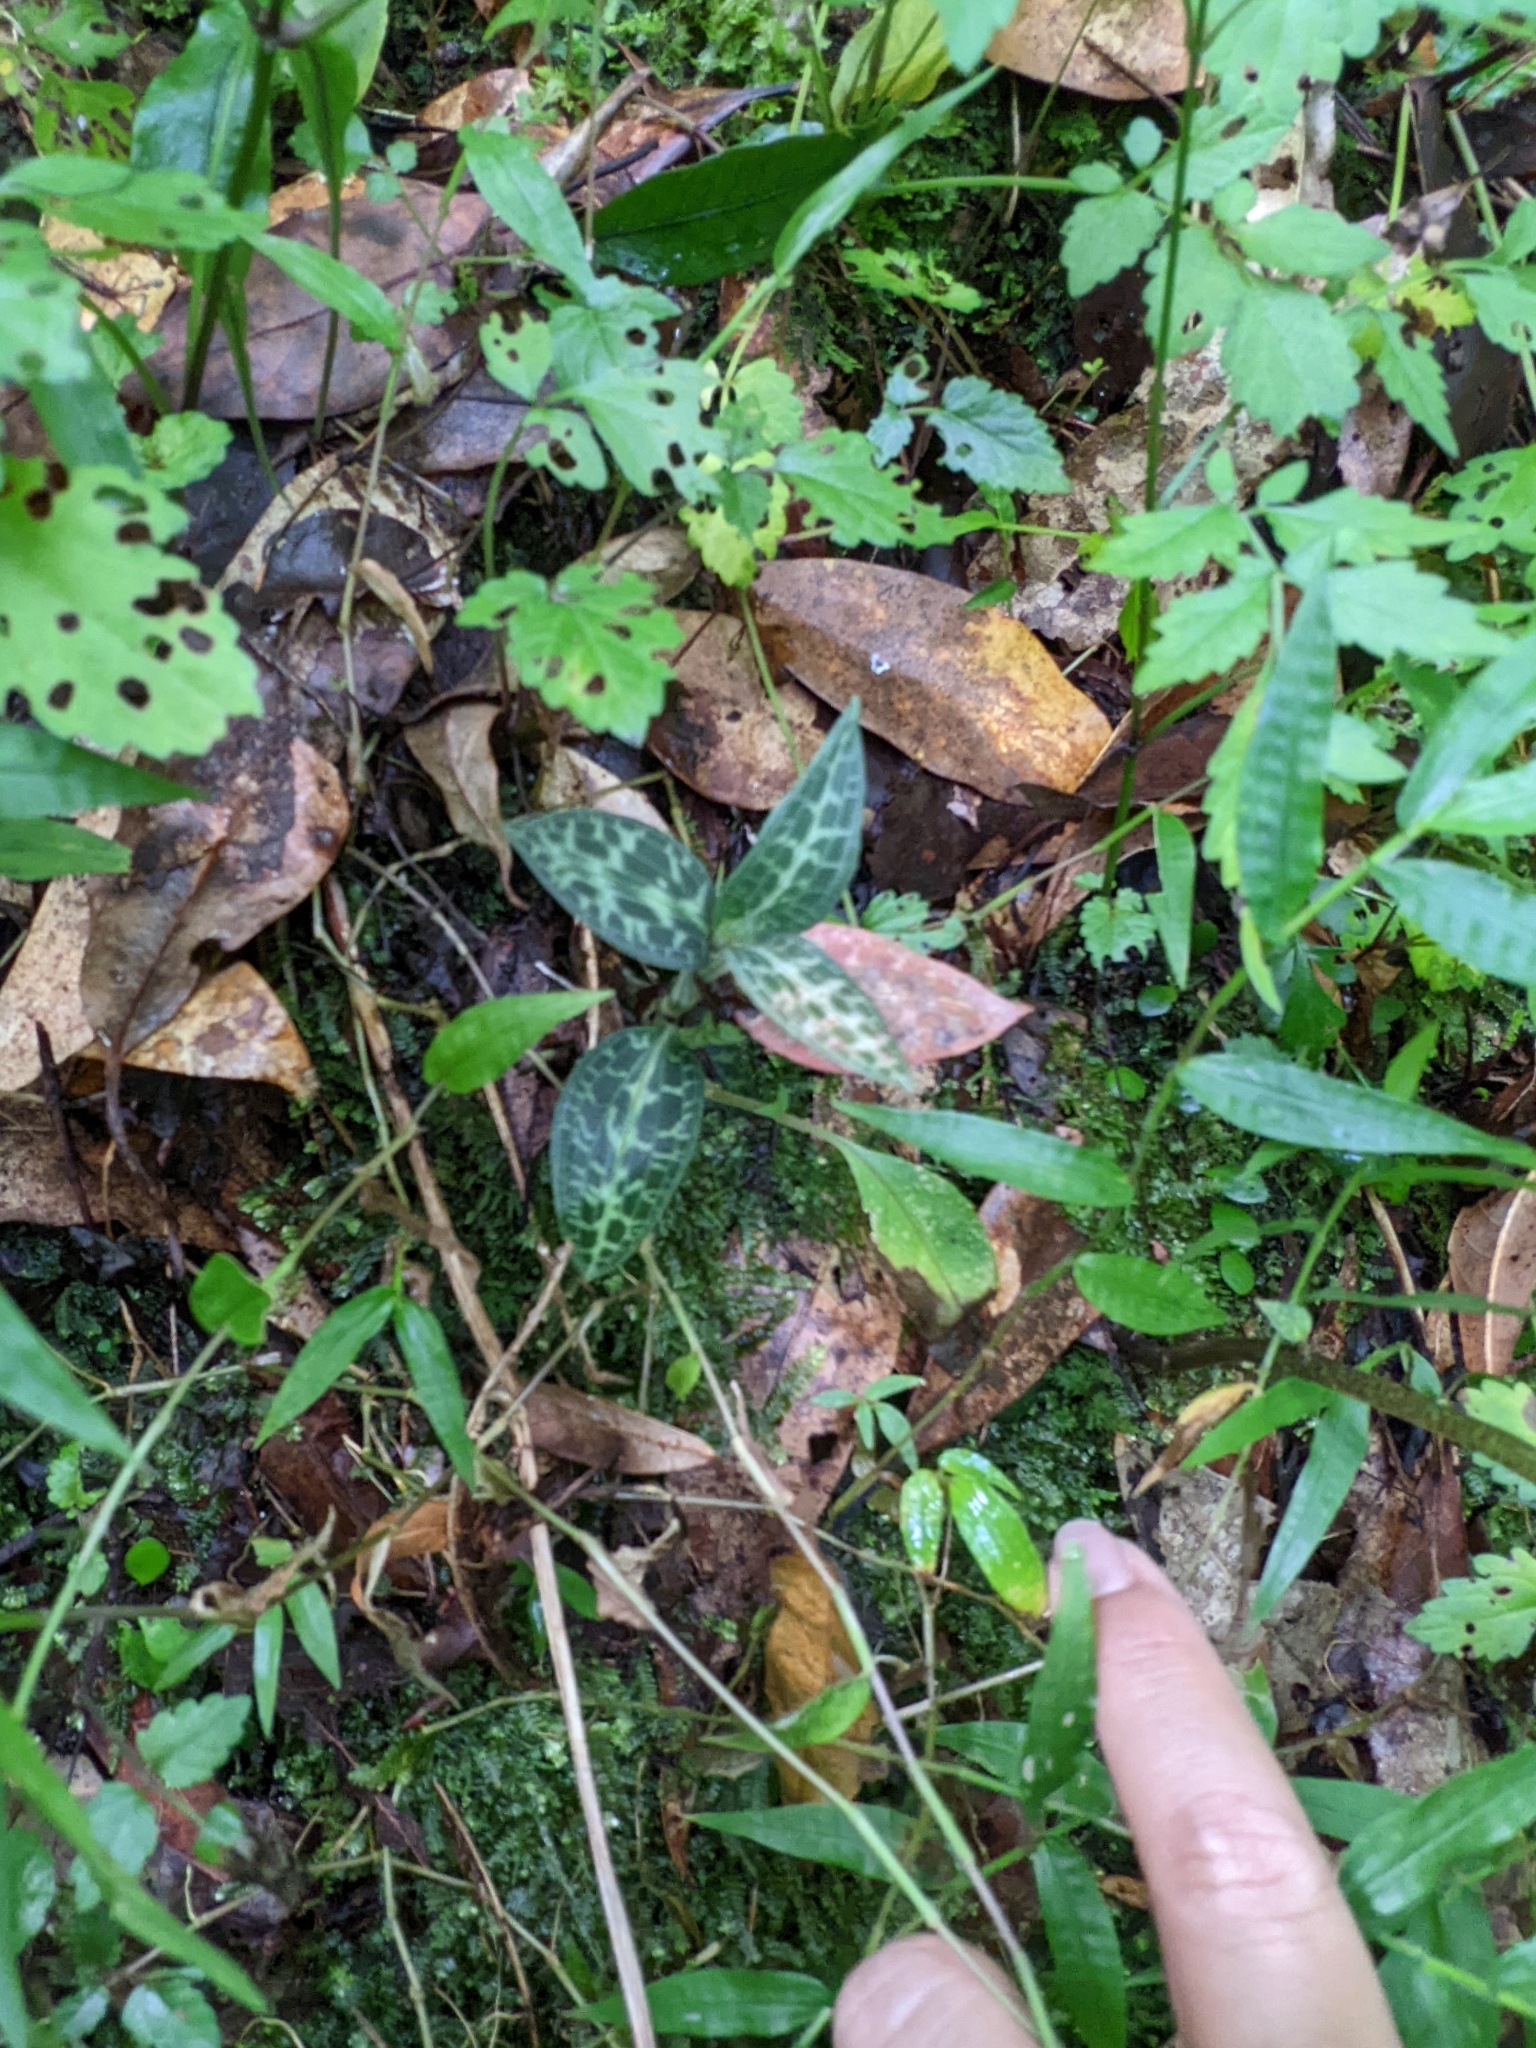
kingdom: Plantae
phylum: Tracheophyta
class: Liliopsida
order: Asparagales
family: Orchidaceae
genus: Goodyera
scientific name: Goodyera schlechtendaliana
